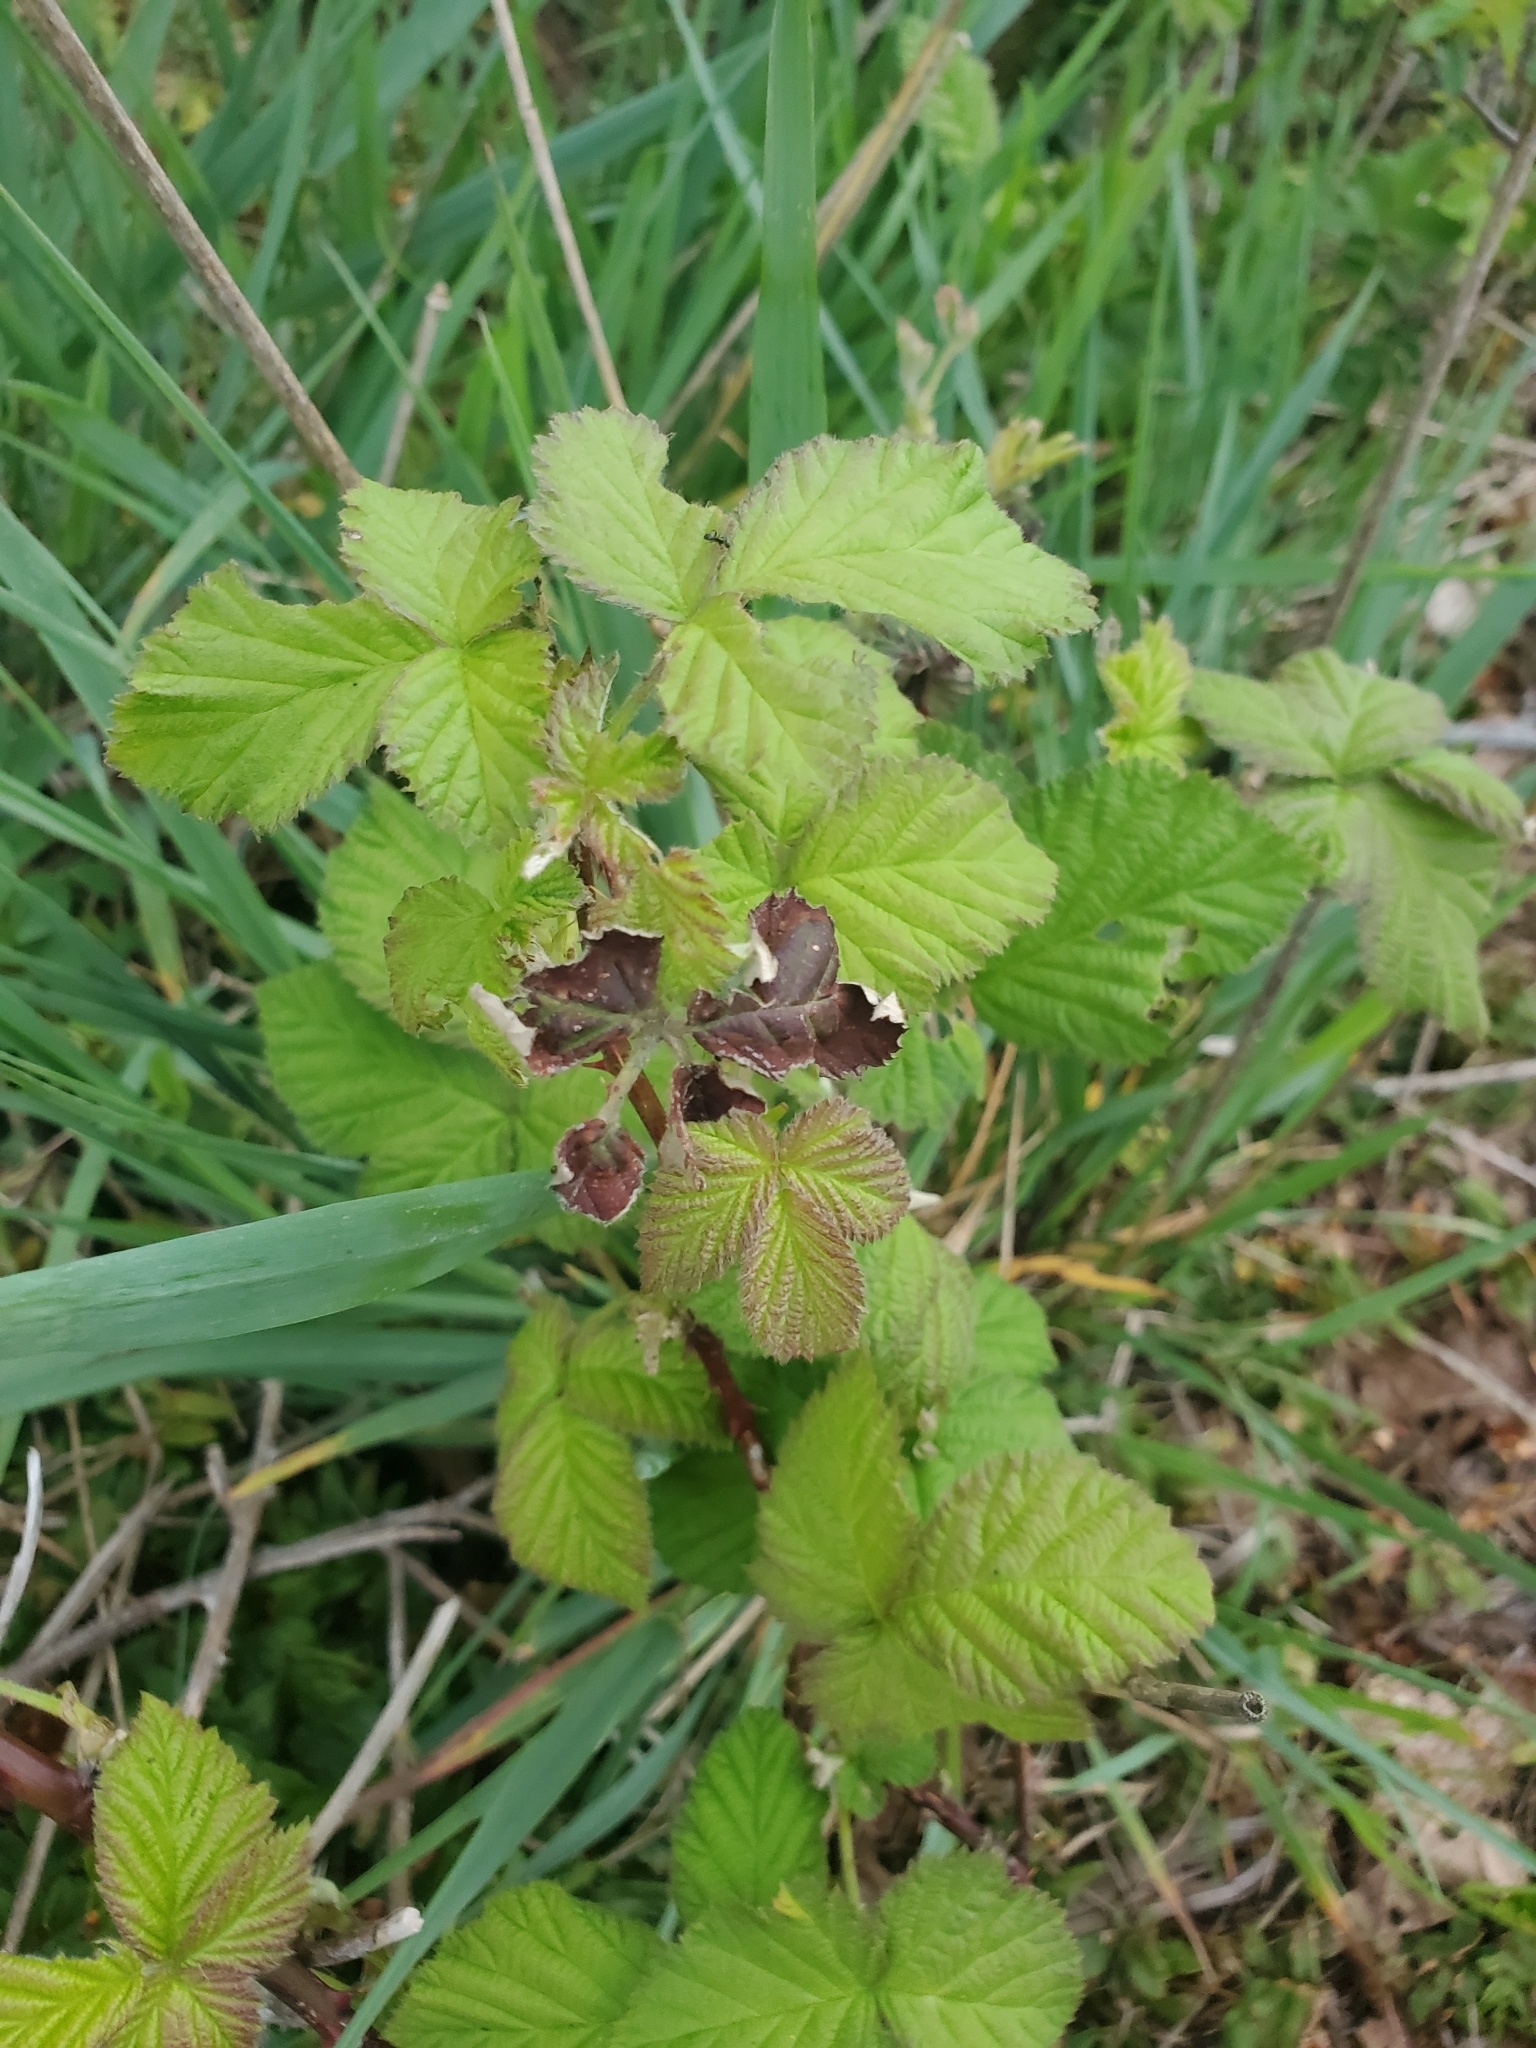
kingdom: Plantae
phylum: Tracheophyta
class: Magnoliopsida
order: Rosales
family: Rosaceae
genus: Rubus
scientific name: Rubus bifrons
